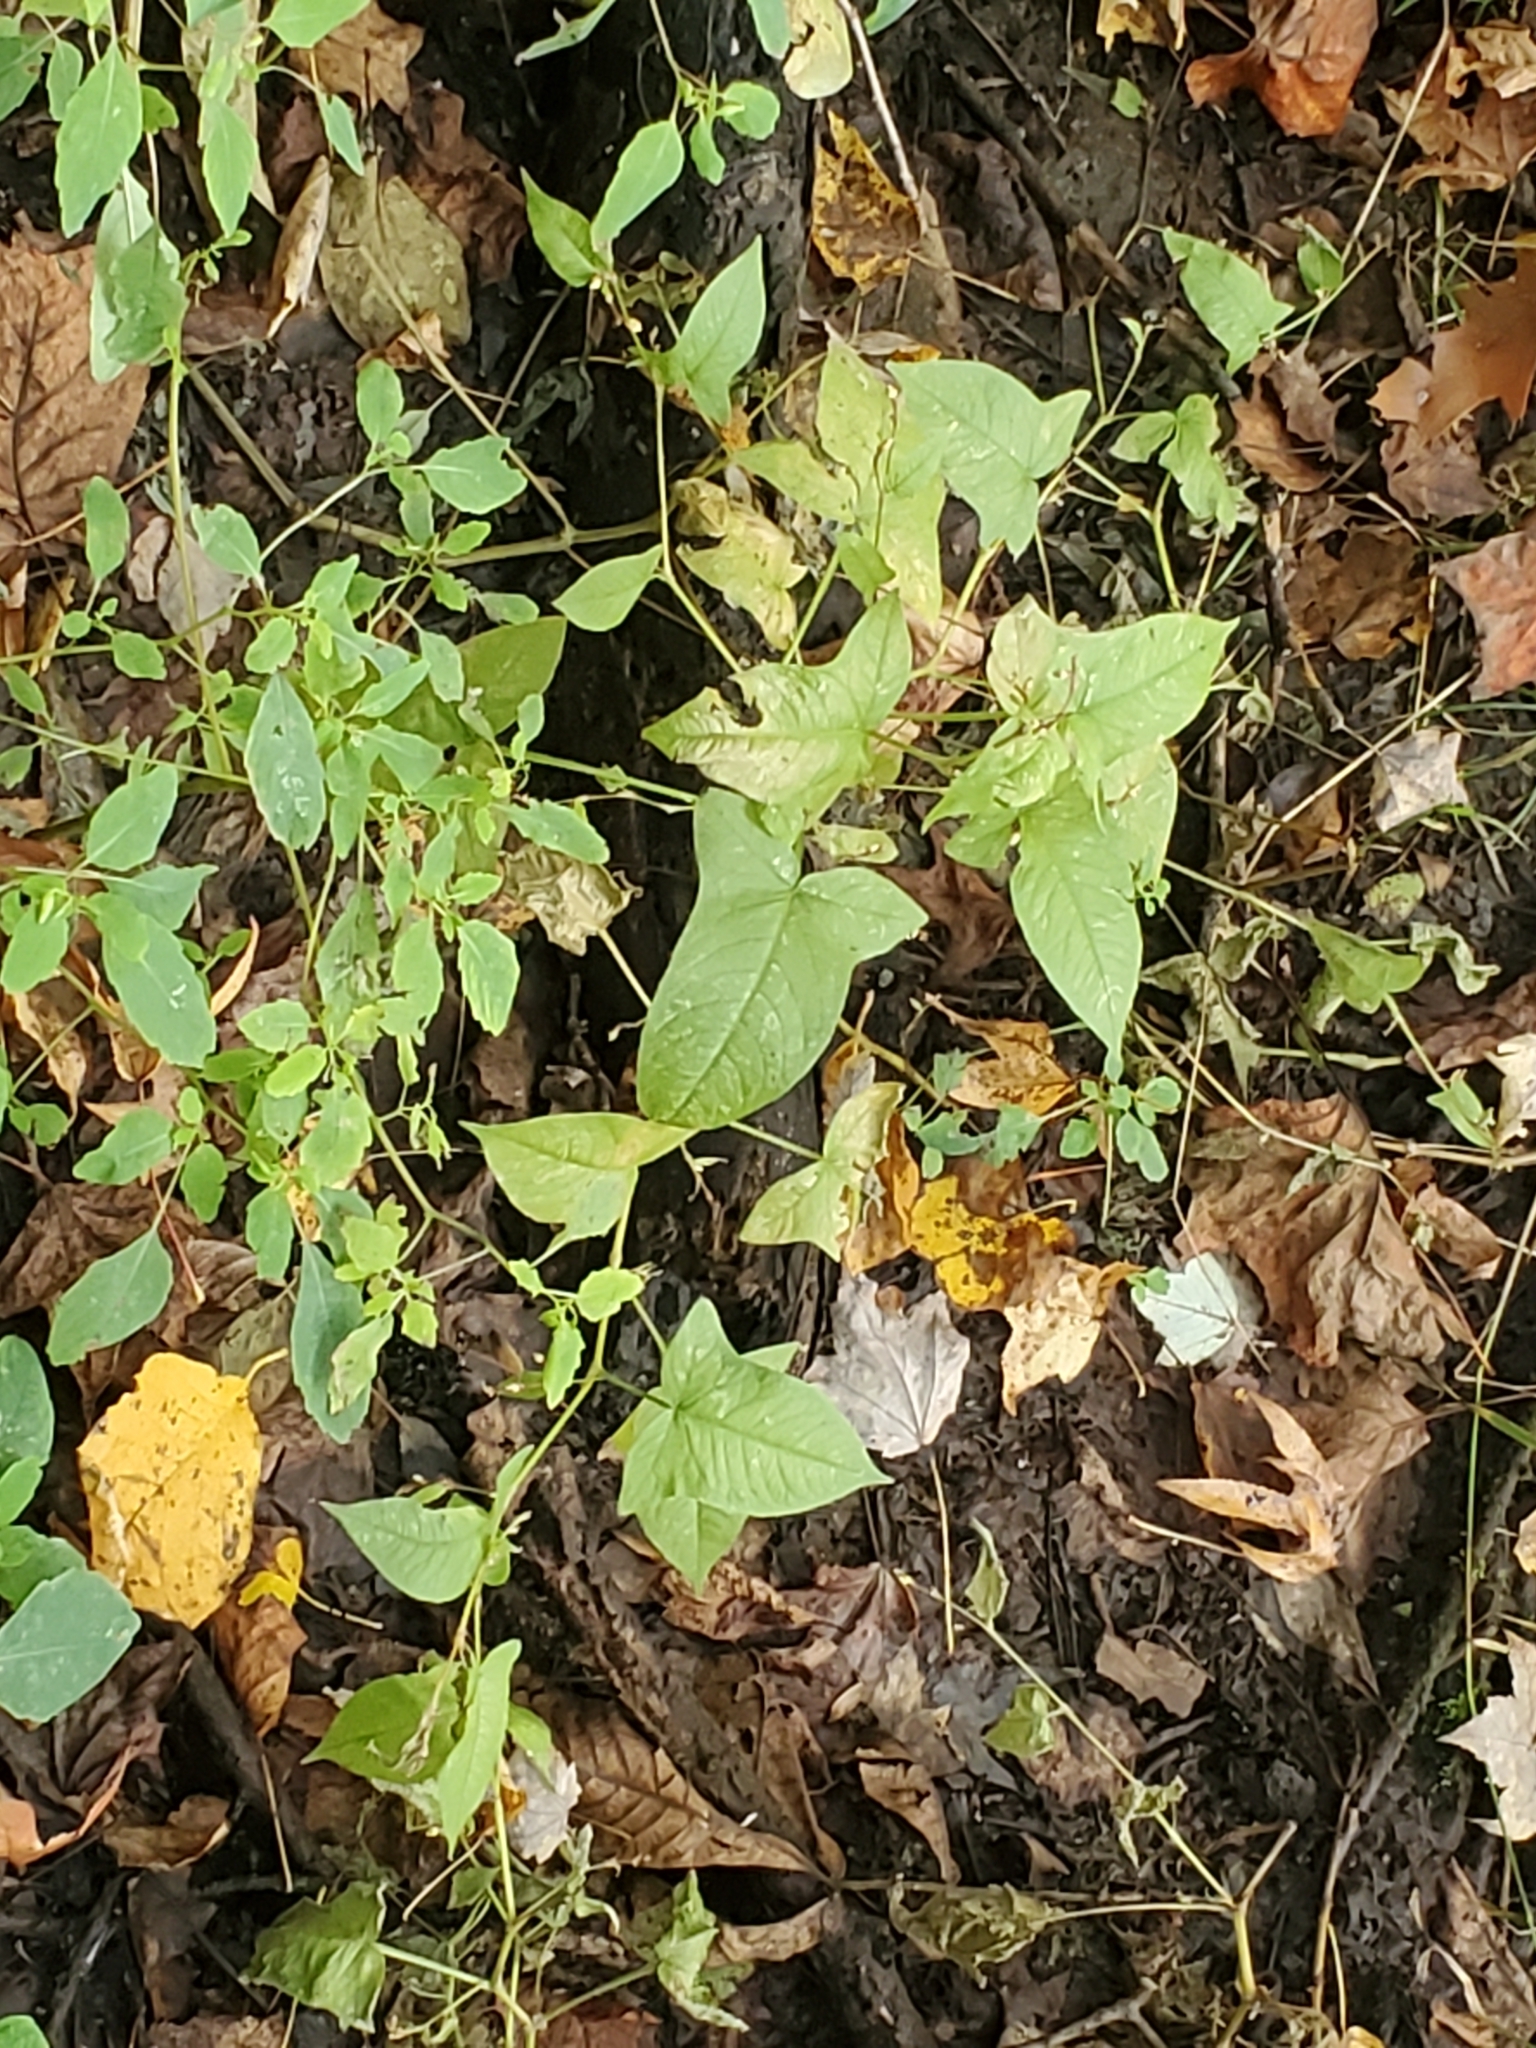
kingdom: Plantae
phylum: Tracheophyta
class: Magnoliopsida
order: Caryophyllales
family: Polygonaceae
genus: Persicaria
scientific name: Persicaria arifolia
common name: Halberd-leaved tear-thumb
